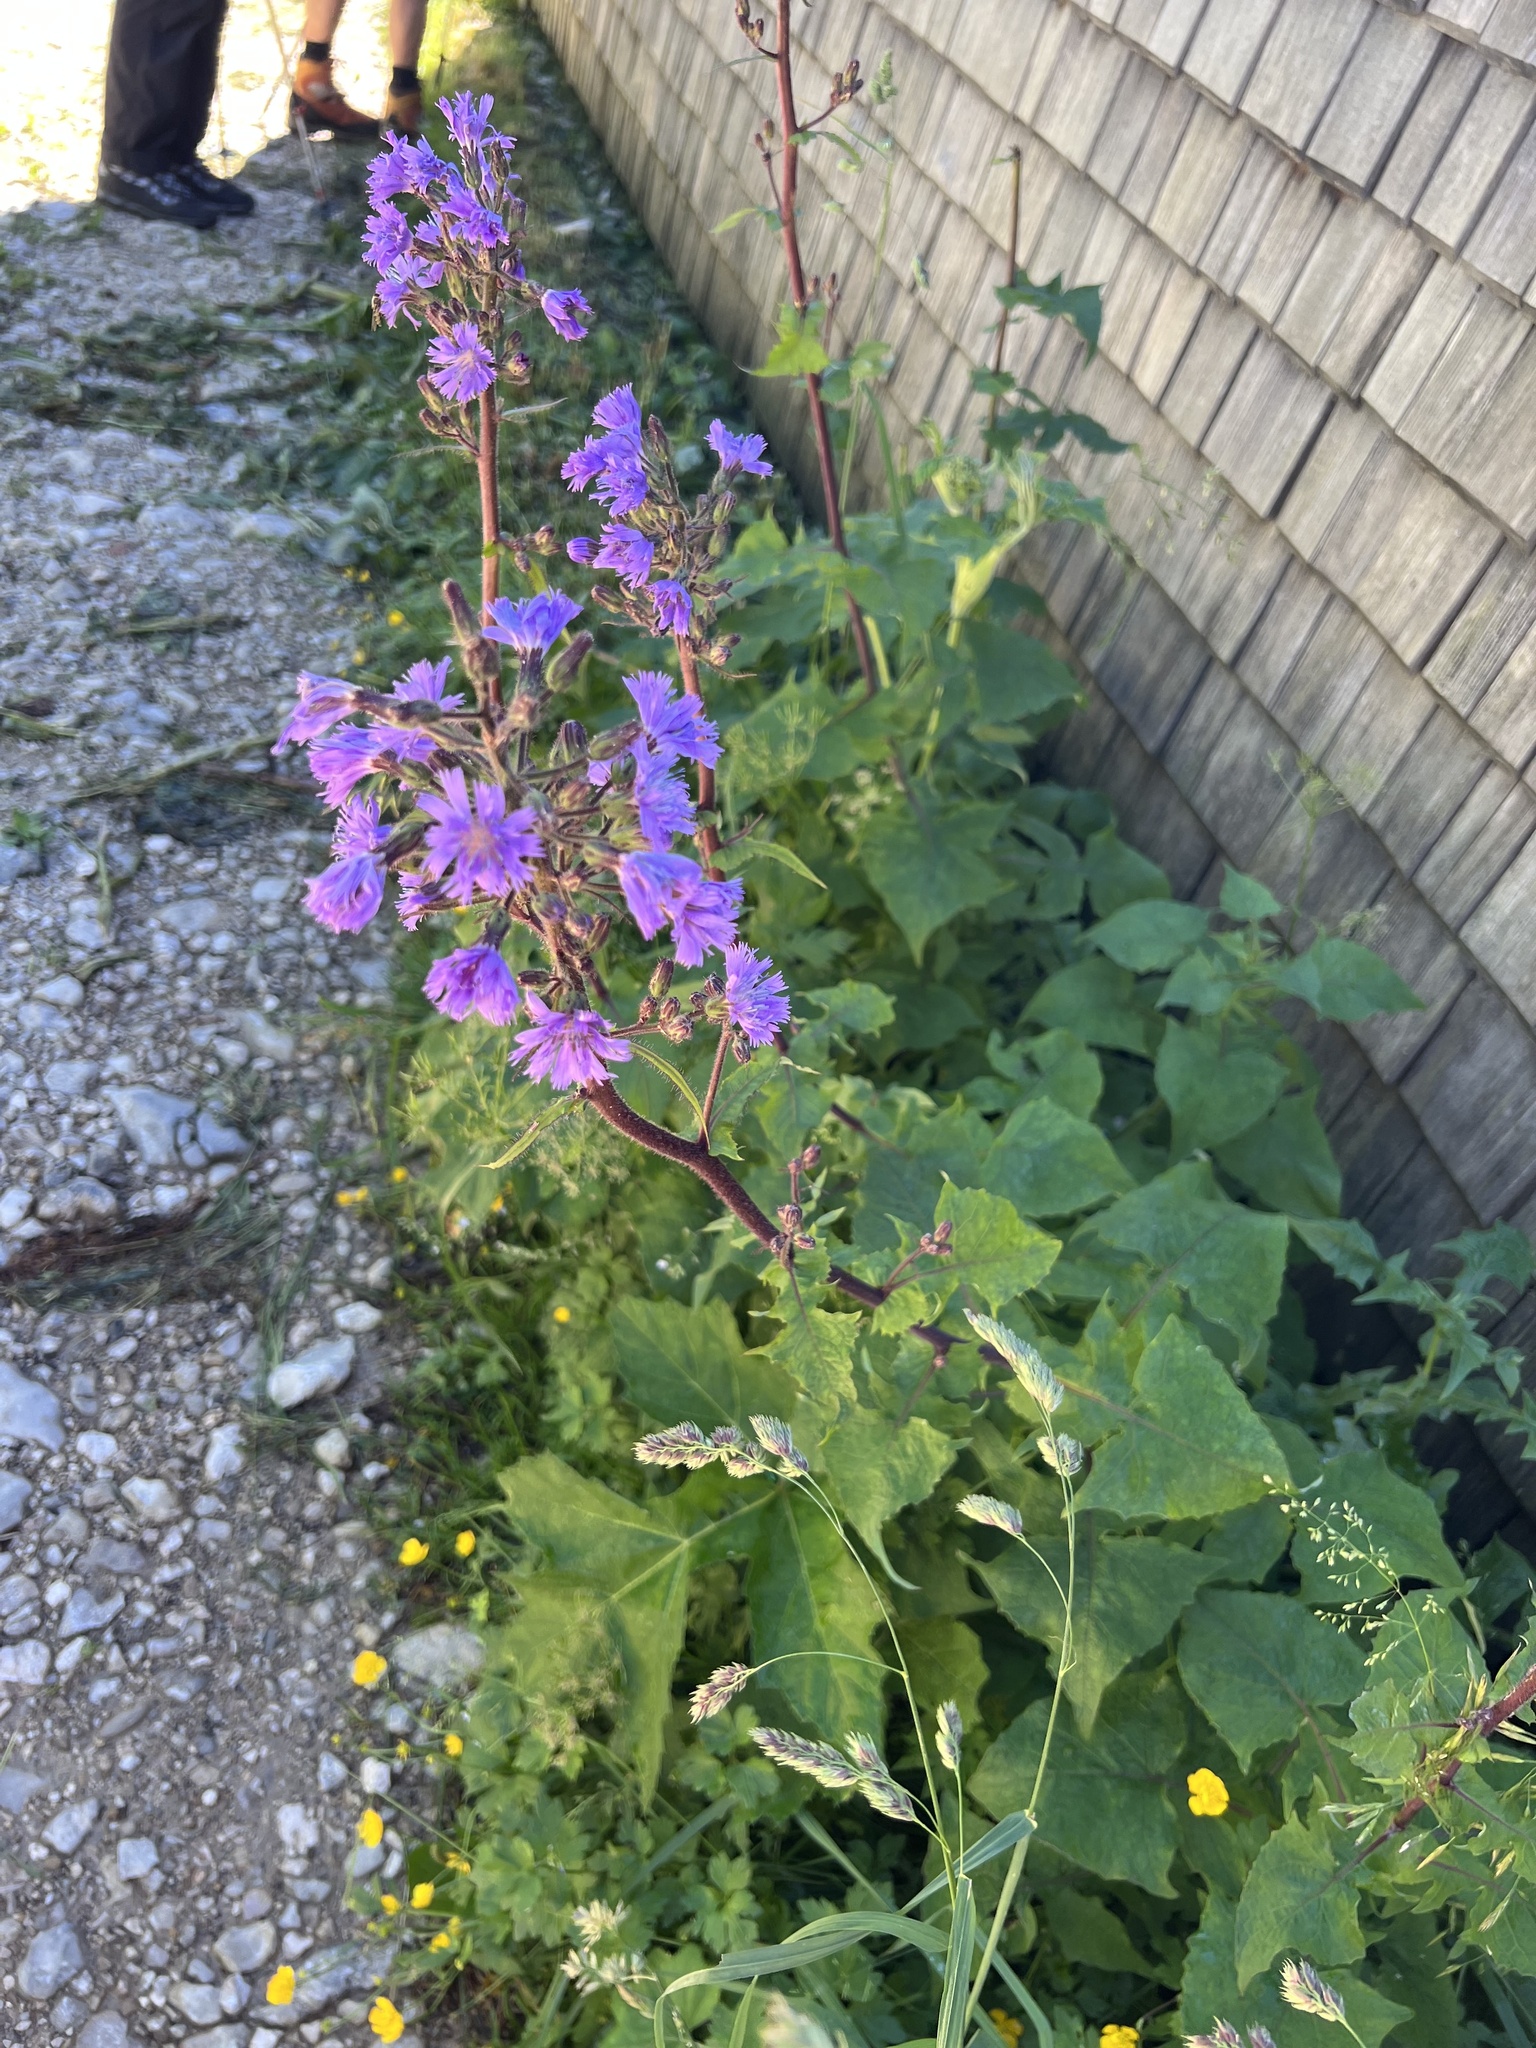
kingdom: Plantae
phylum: Tracheophyta
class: Magnoliopsida
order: Asterales
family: Asteraceae
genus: Cicerbita
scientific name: Cicerbita alpina
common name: Alpine blue-sow-thistle
